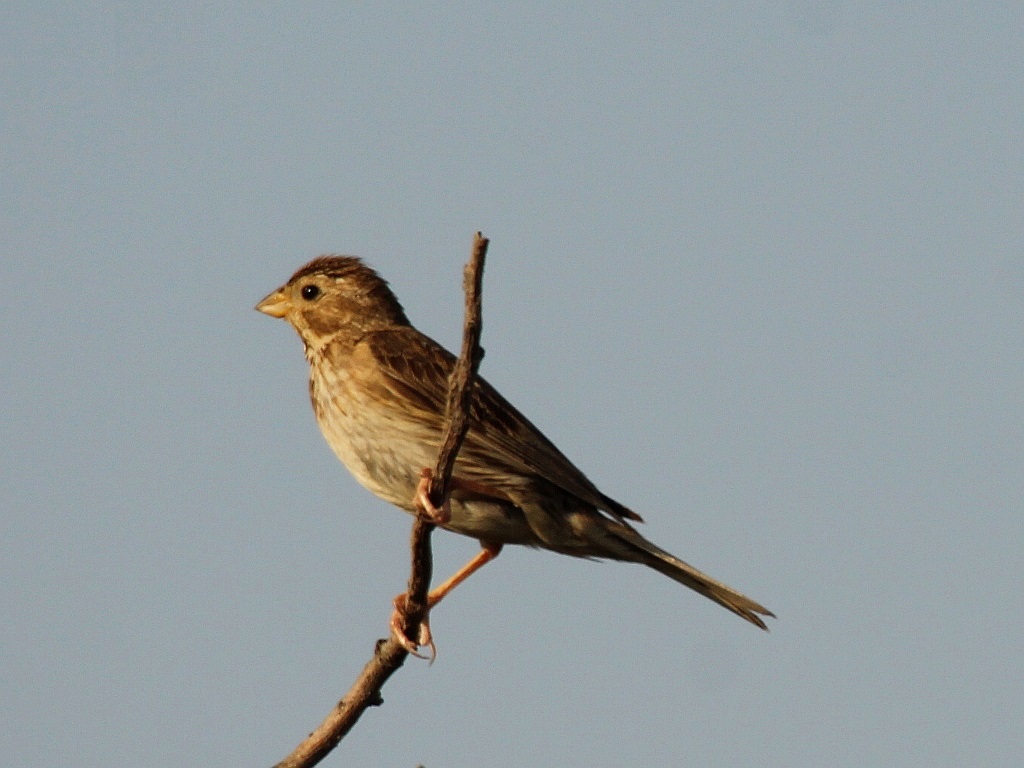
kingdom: Animalia
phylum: Chordata
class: Aves
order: Passeriformes
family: Emberizidae
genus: Emberiza
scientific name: Emberiza calandra
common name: Corn bunting
